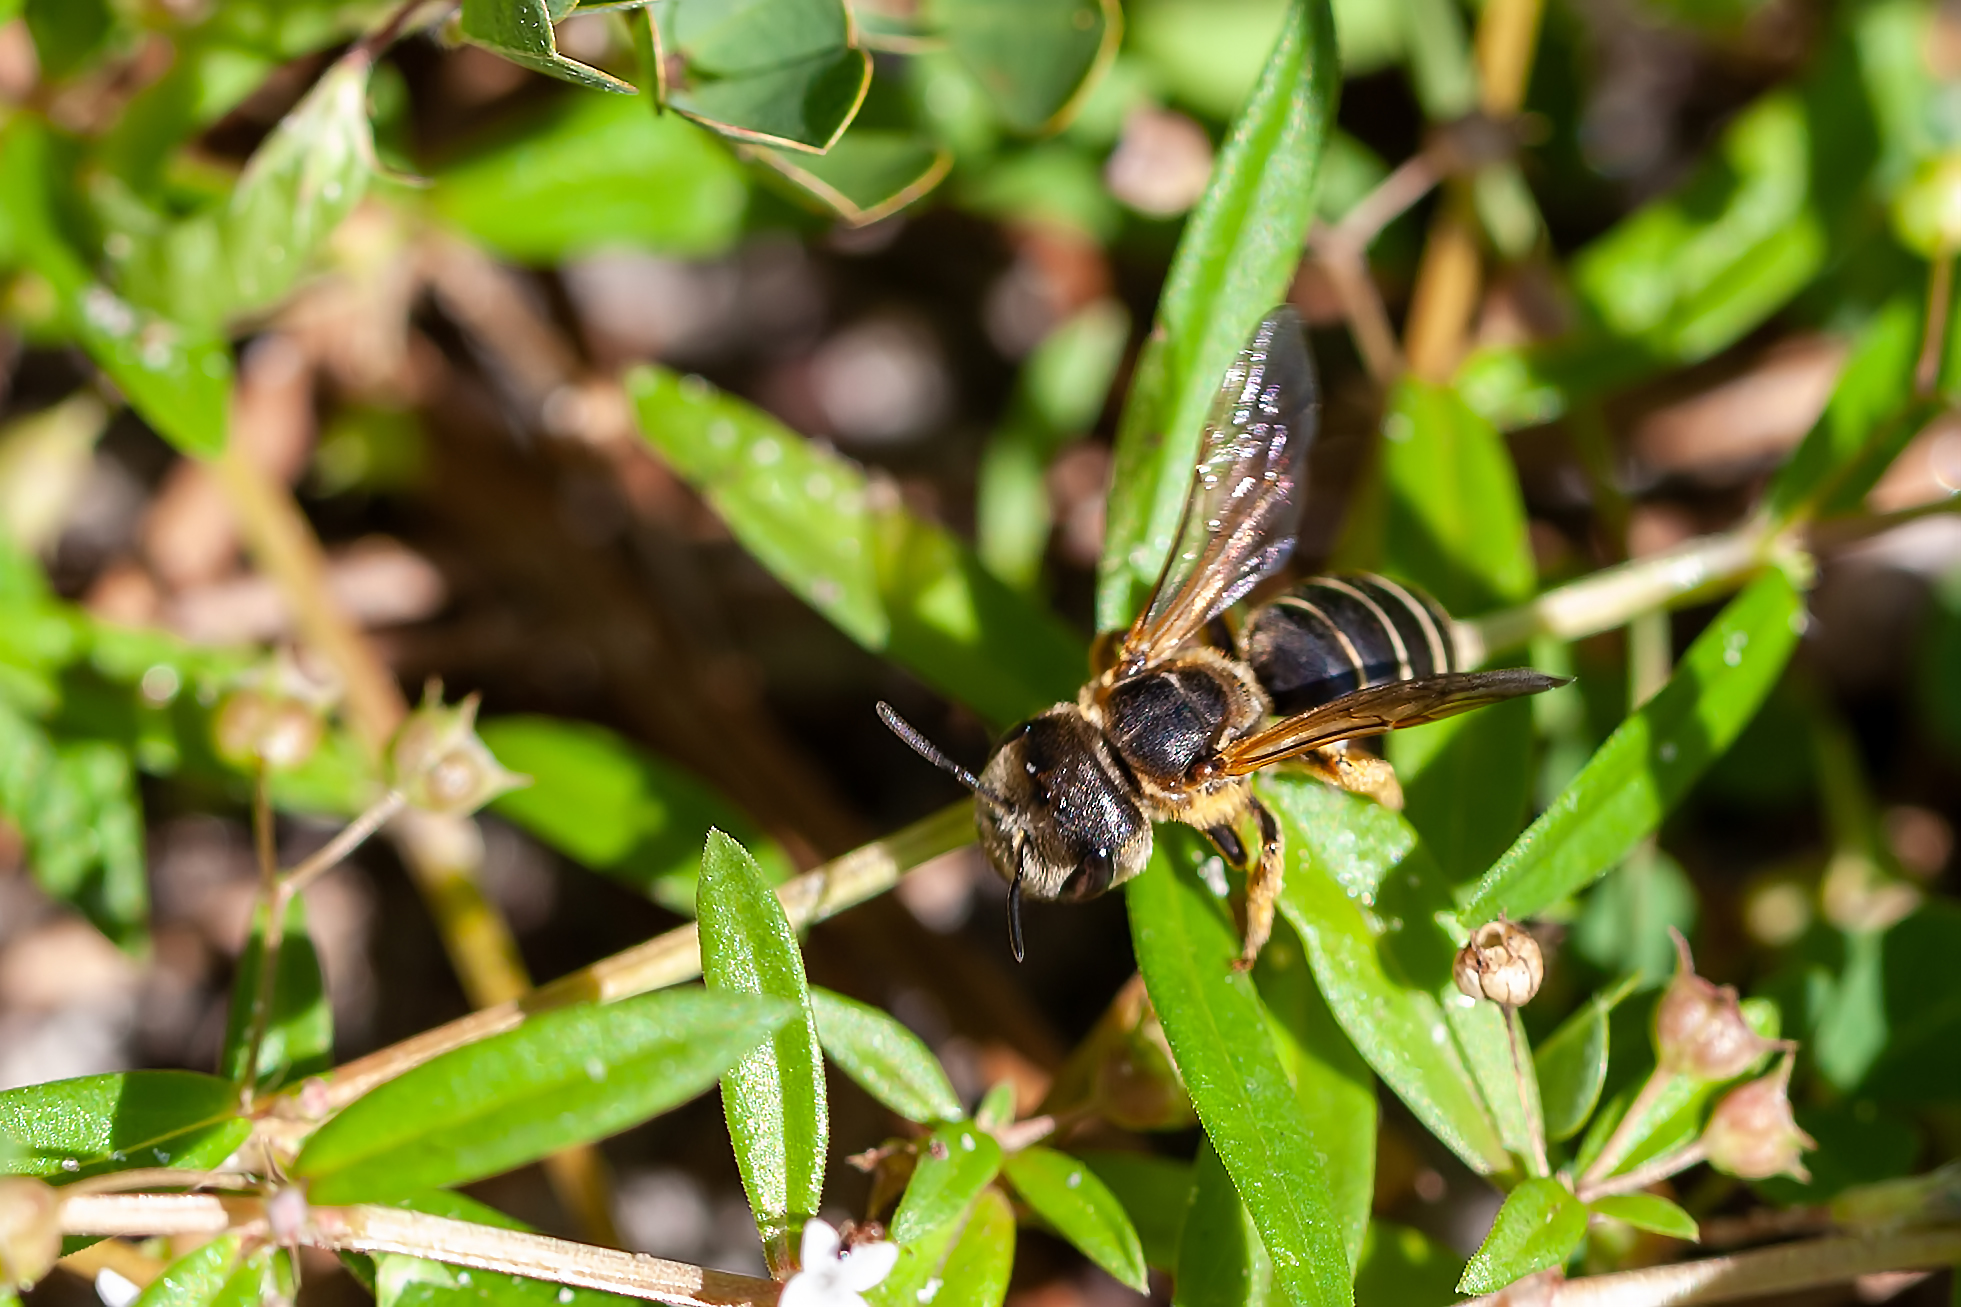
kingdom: Animalia
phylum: Arthropoda
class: Insecta
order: Hymenoptera
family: Halictidae
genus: Halictus
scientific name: Halictus poeyi
